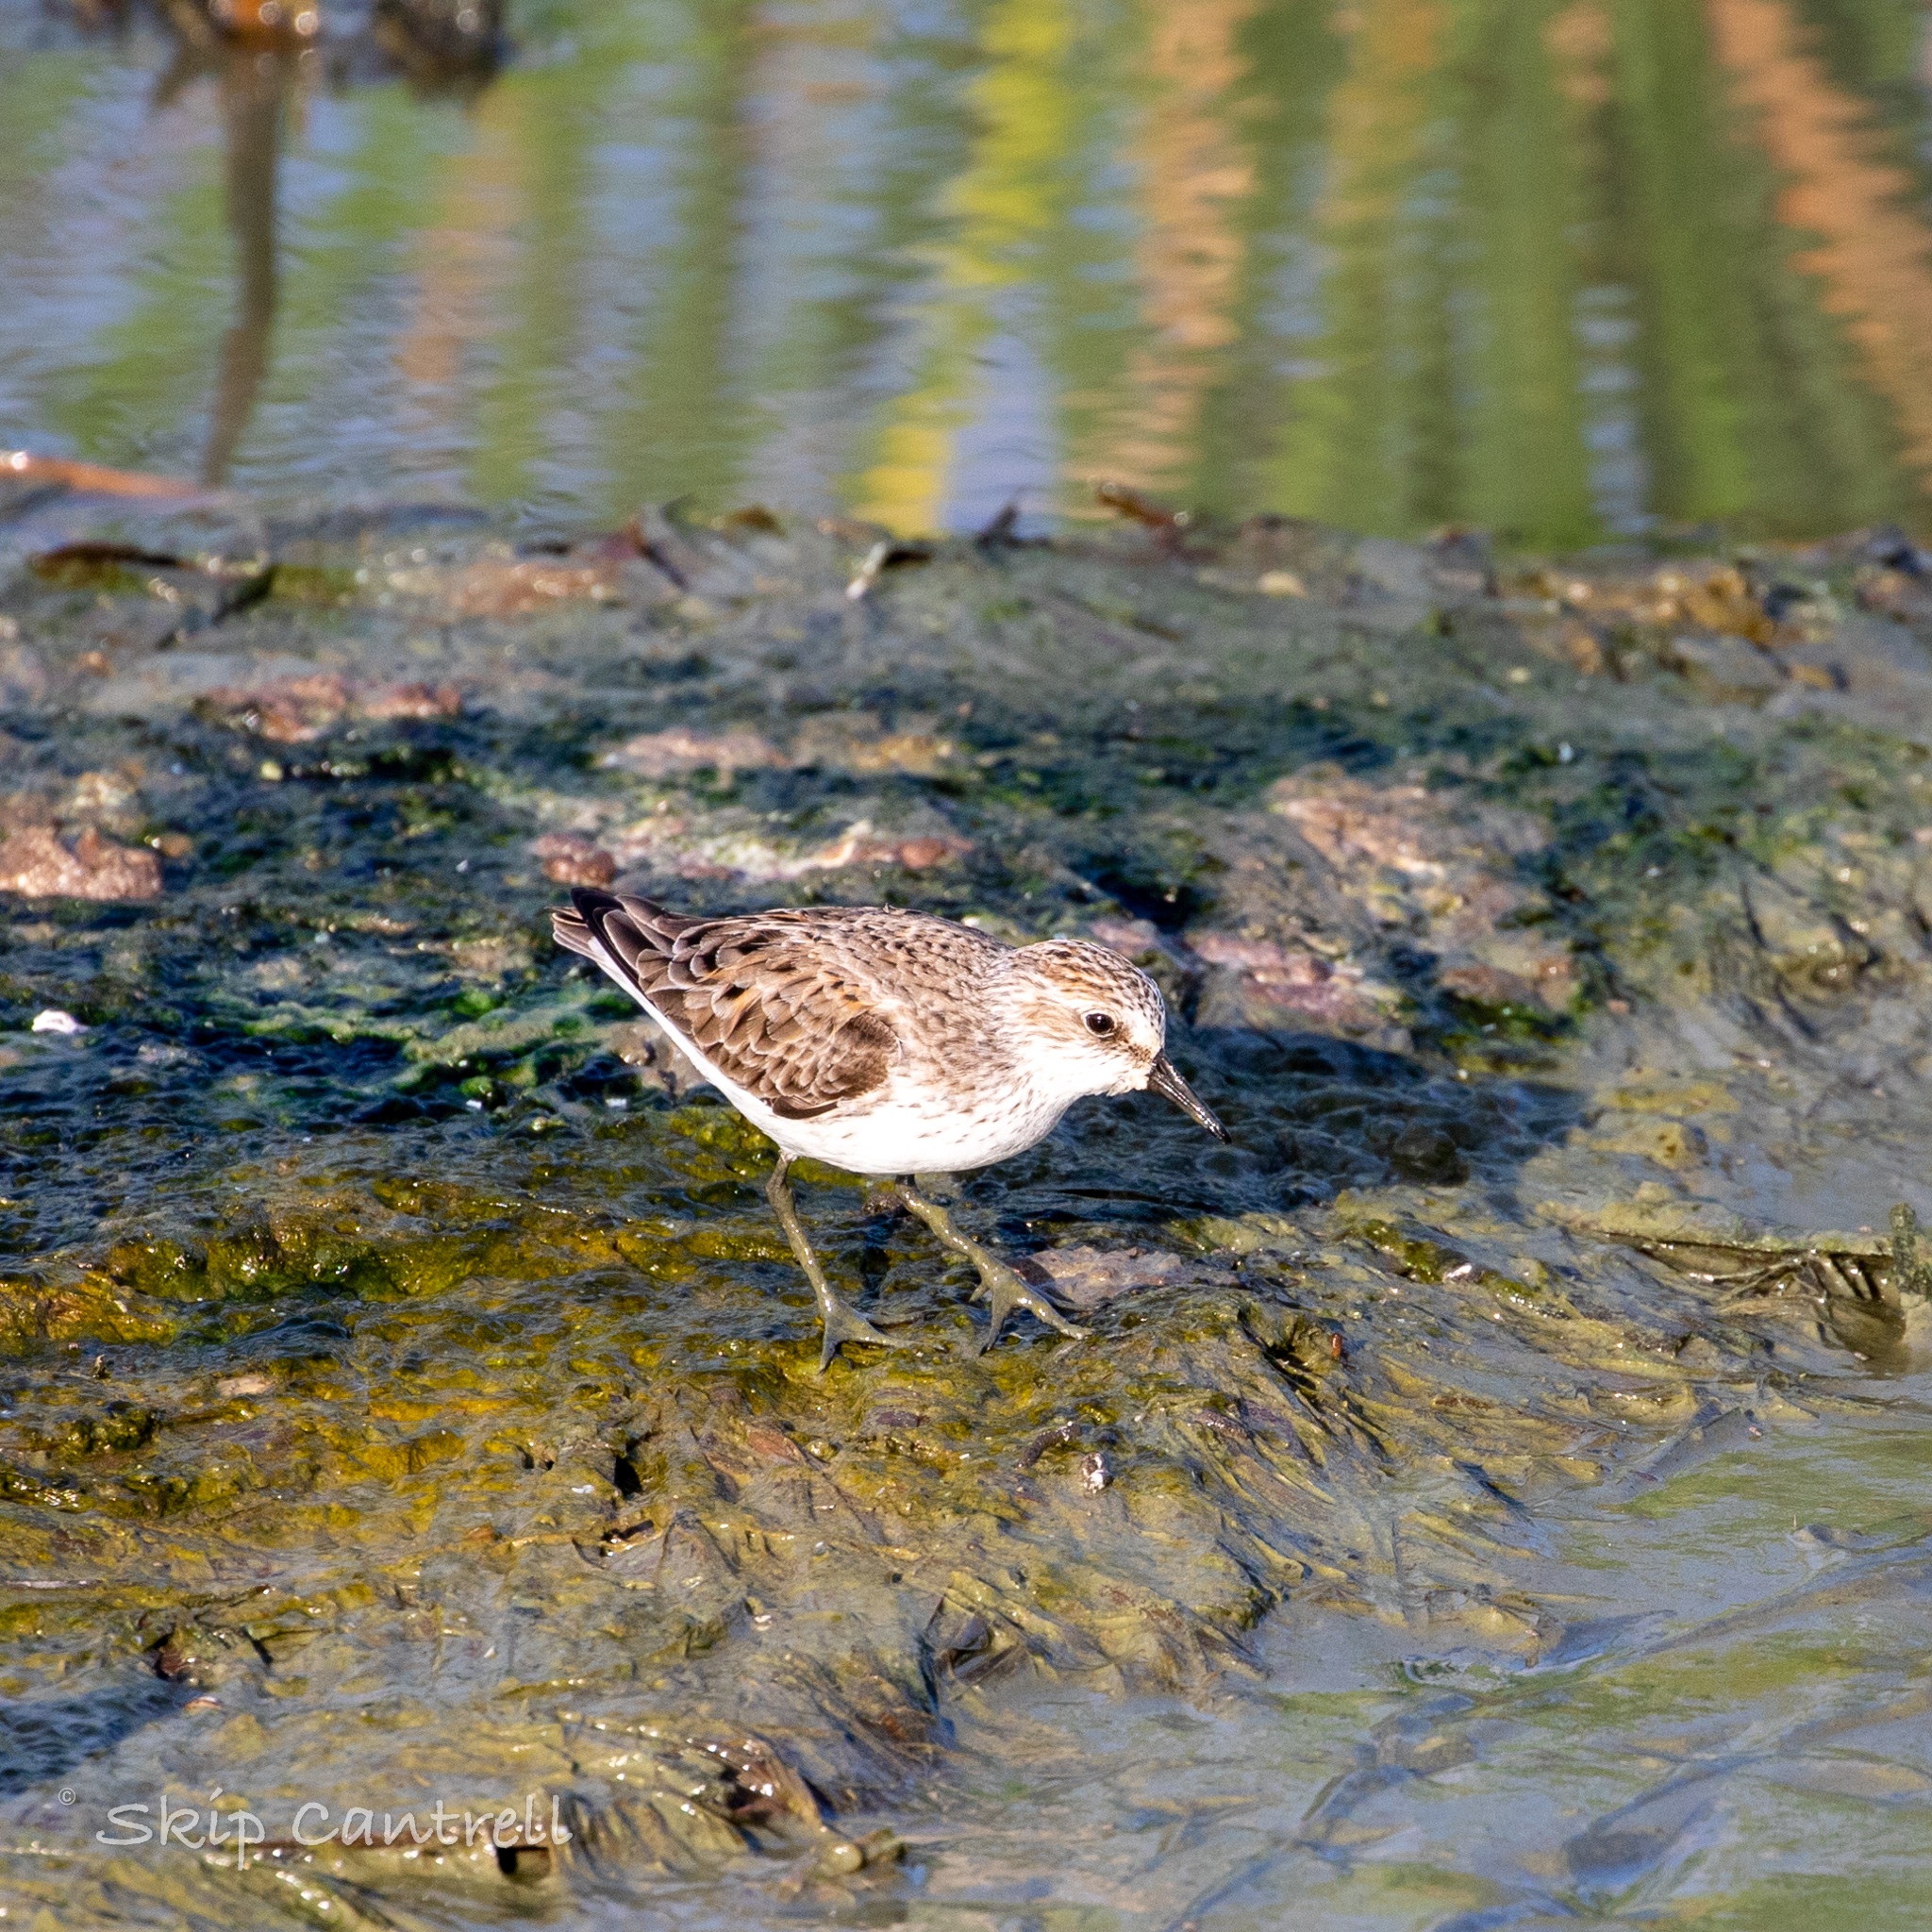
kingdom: Animalia
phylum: Chordata
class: Aves
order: Charadriiformes
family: Scolopacidae
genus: Calidris
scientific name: Calidris pusilla
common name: Semipalmated sandpiper
